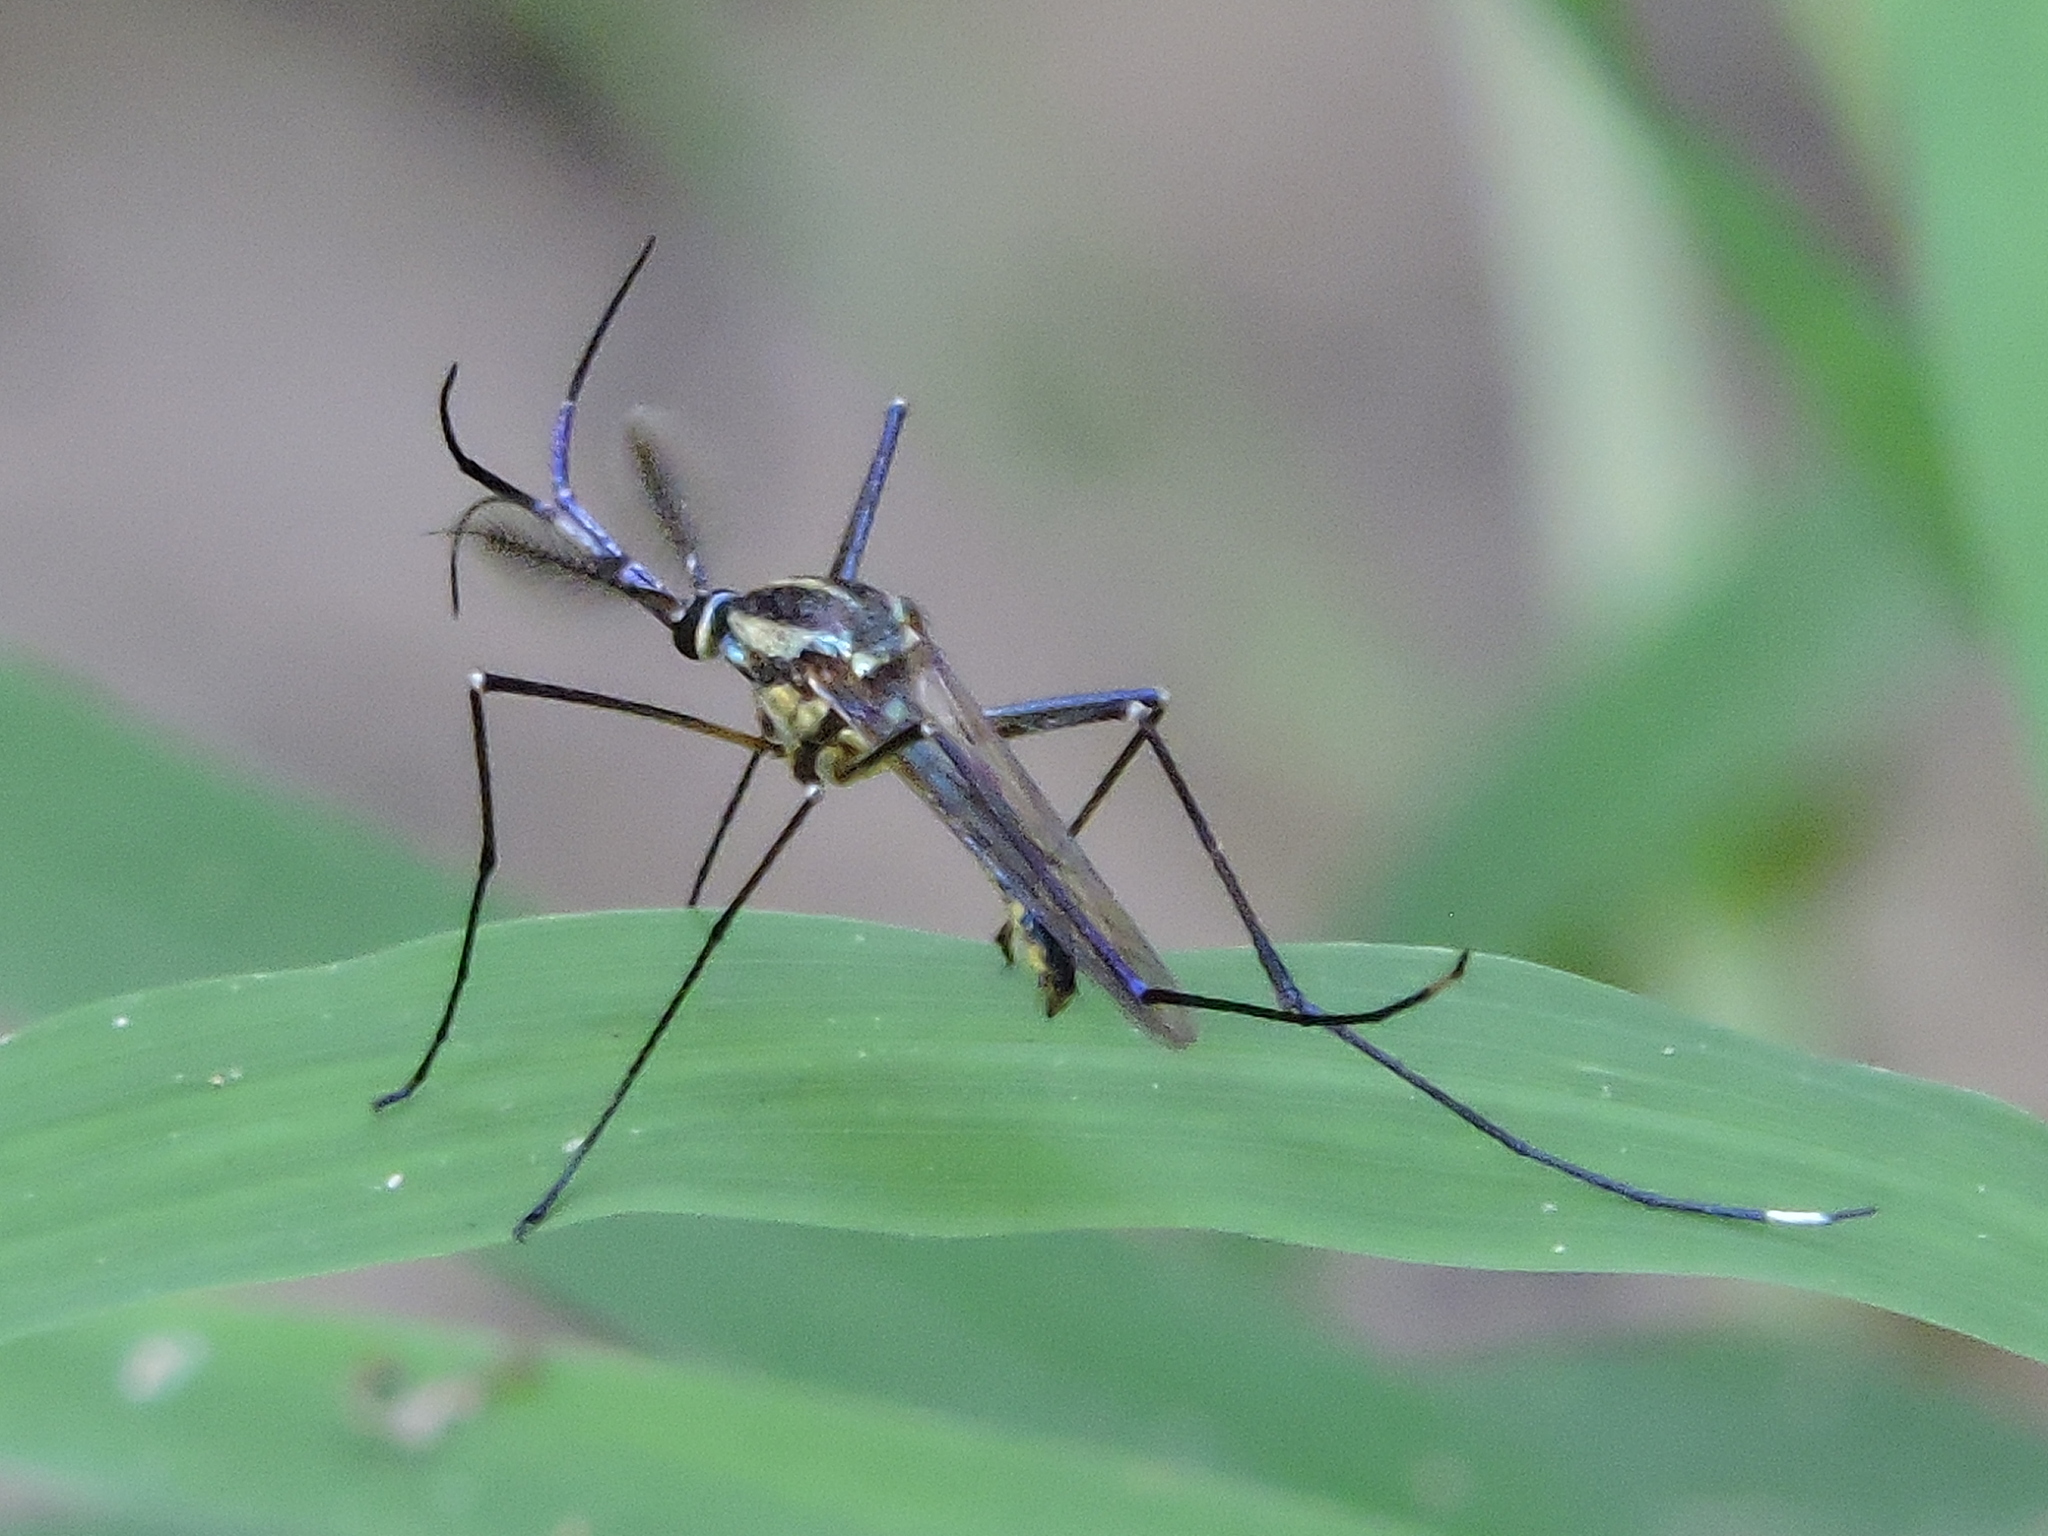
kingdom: Animalia
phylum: Arthropoda
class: Insecta
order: Diptera
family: Culicidae
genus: Toxorhynchites
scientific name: Toxorhynchites rutilus
